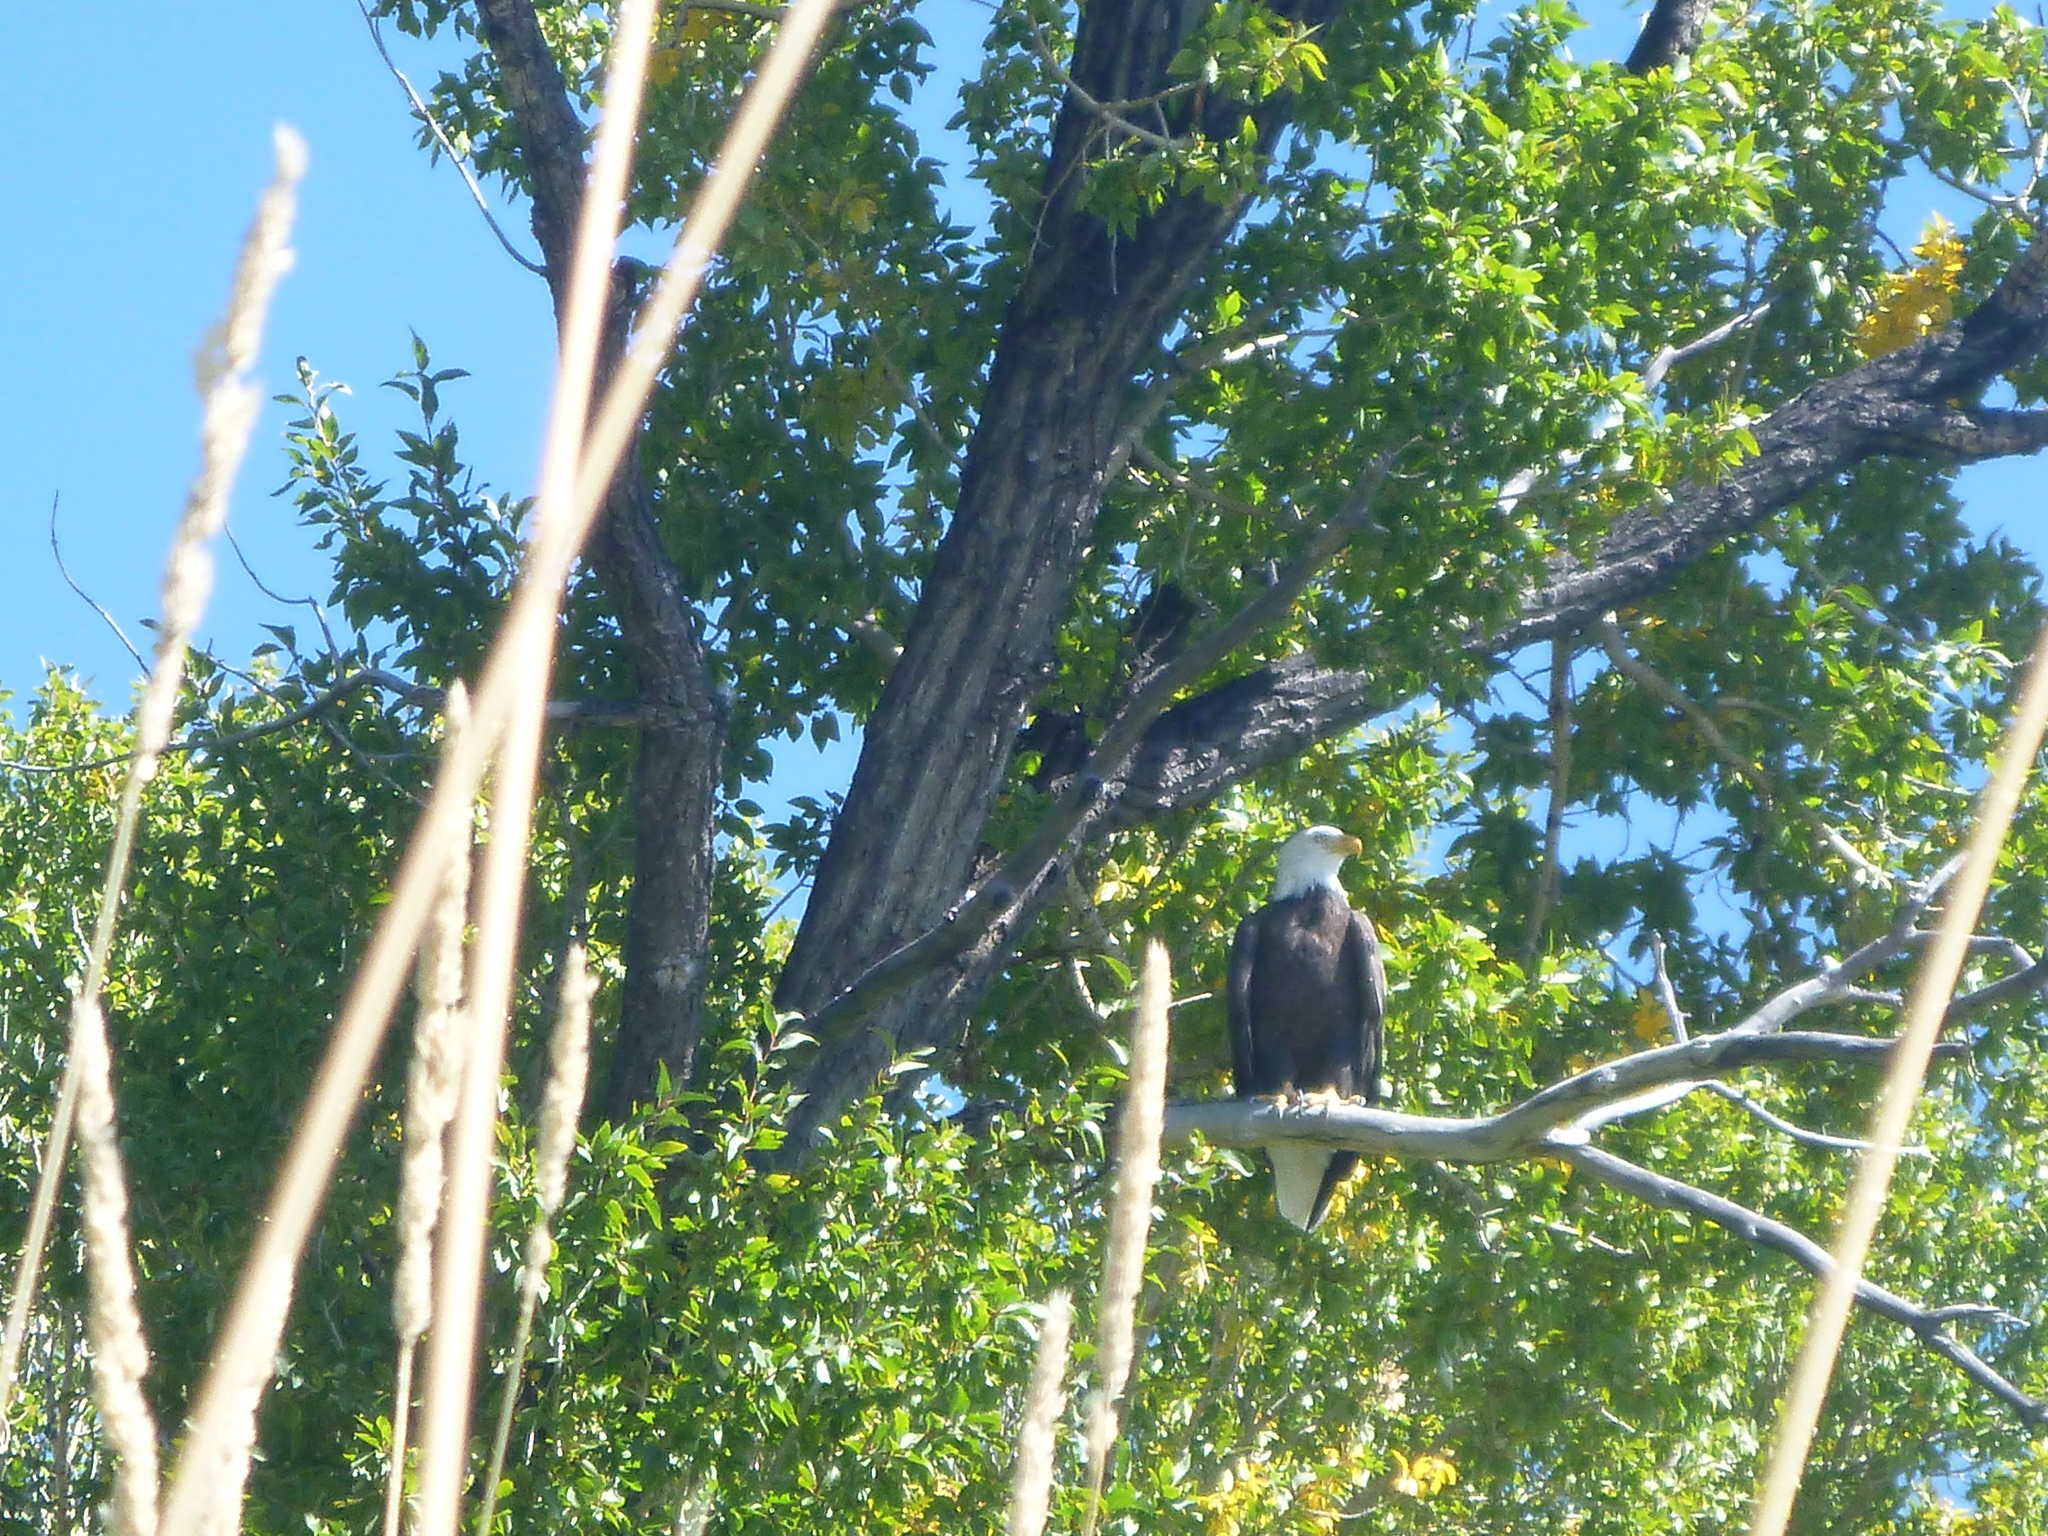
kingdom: Animalia
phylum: Chordata
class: Aves
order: Accipitriformes
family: Accipitridae
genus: Haliaeetus
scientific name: Haliaeetus leucocephalus
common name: Bald eagle
